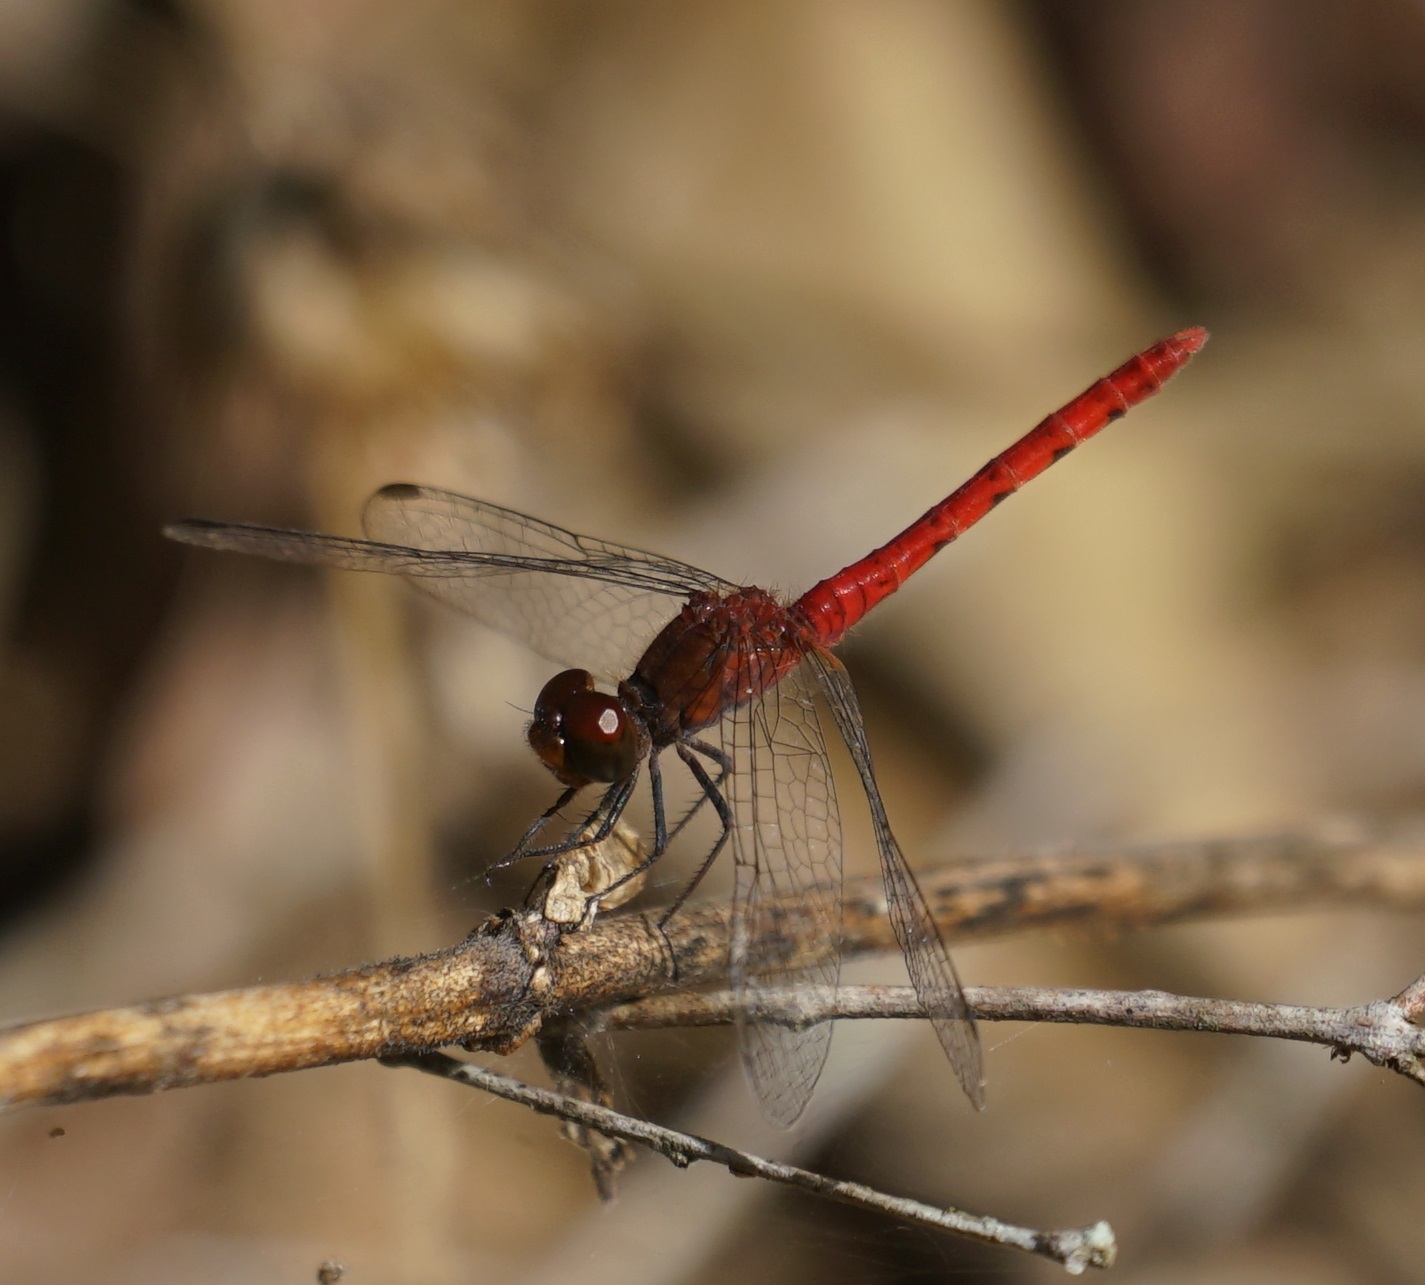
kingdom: Animalia
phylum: Arthropoda
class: Insecta
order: Odonata
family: Libellulidae
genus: Nannodiplax
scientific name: Nannodiplax rubra
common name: Pygmy percher
